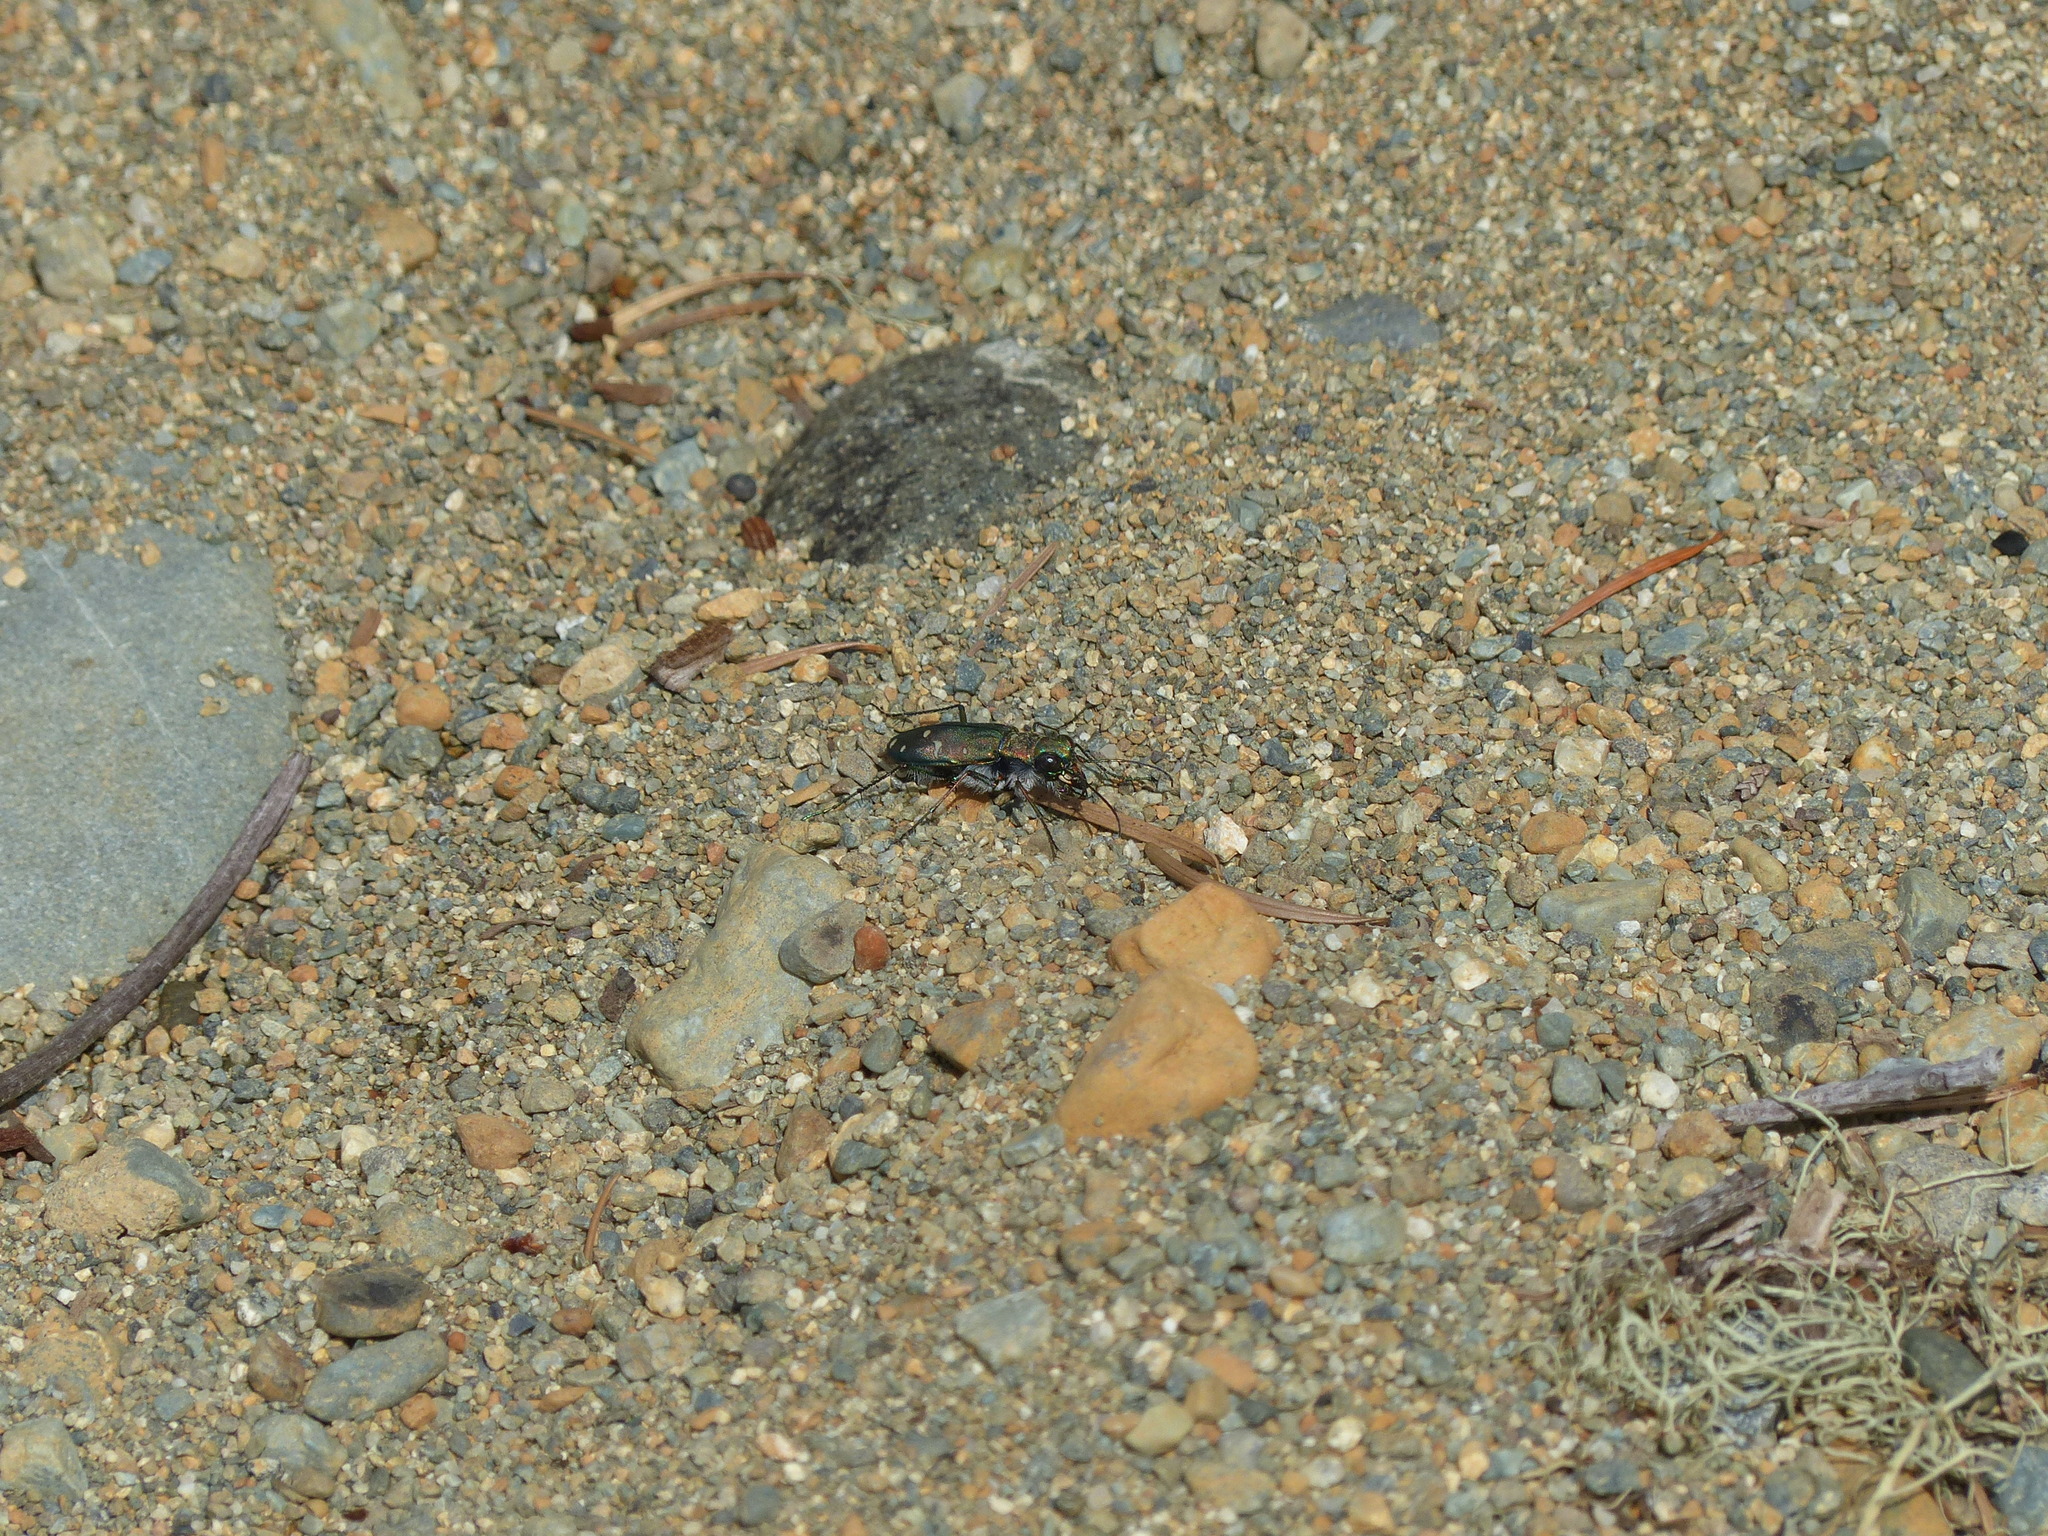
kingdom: Animalia
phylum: Arthropoda
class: Insecta
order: Coleoptera
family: Carabidae
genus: Cicindela
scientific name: Cicindela oregona
